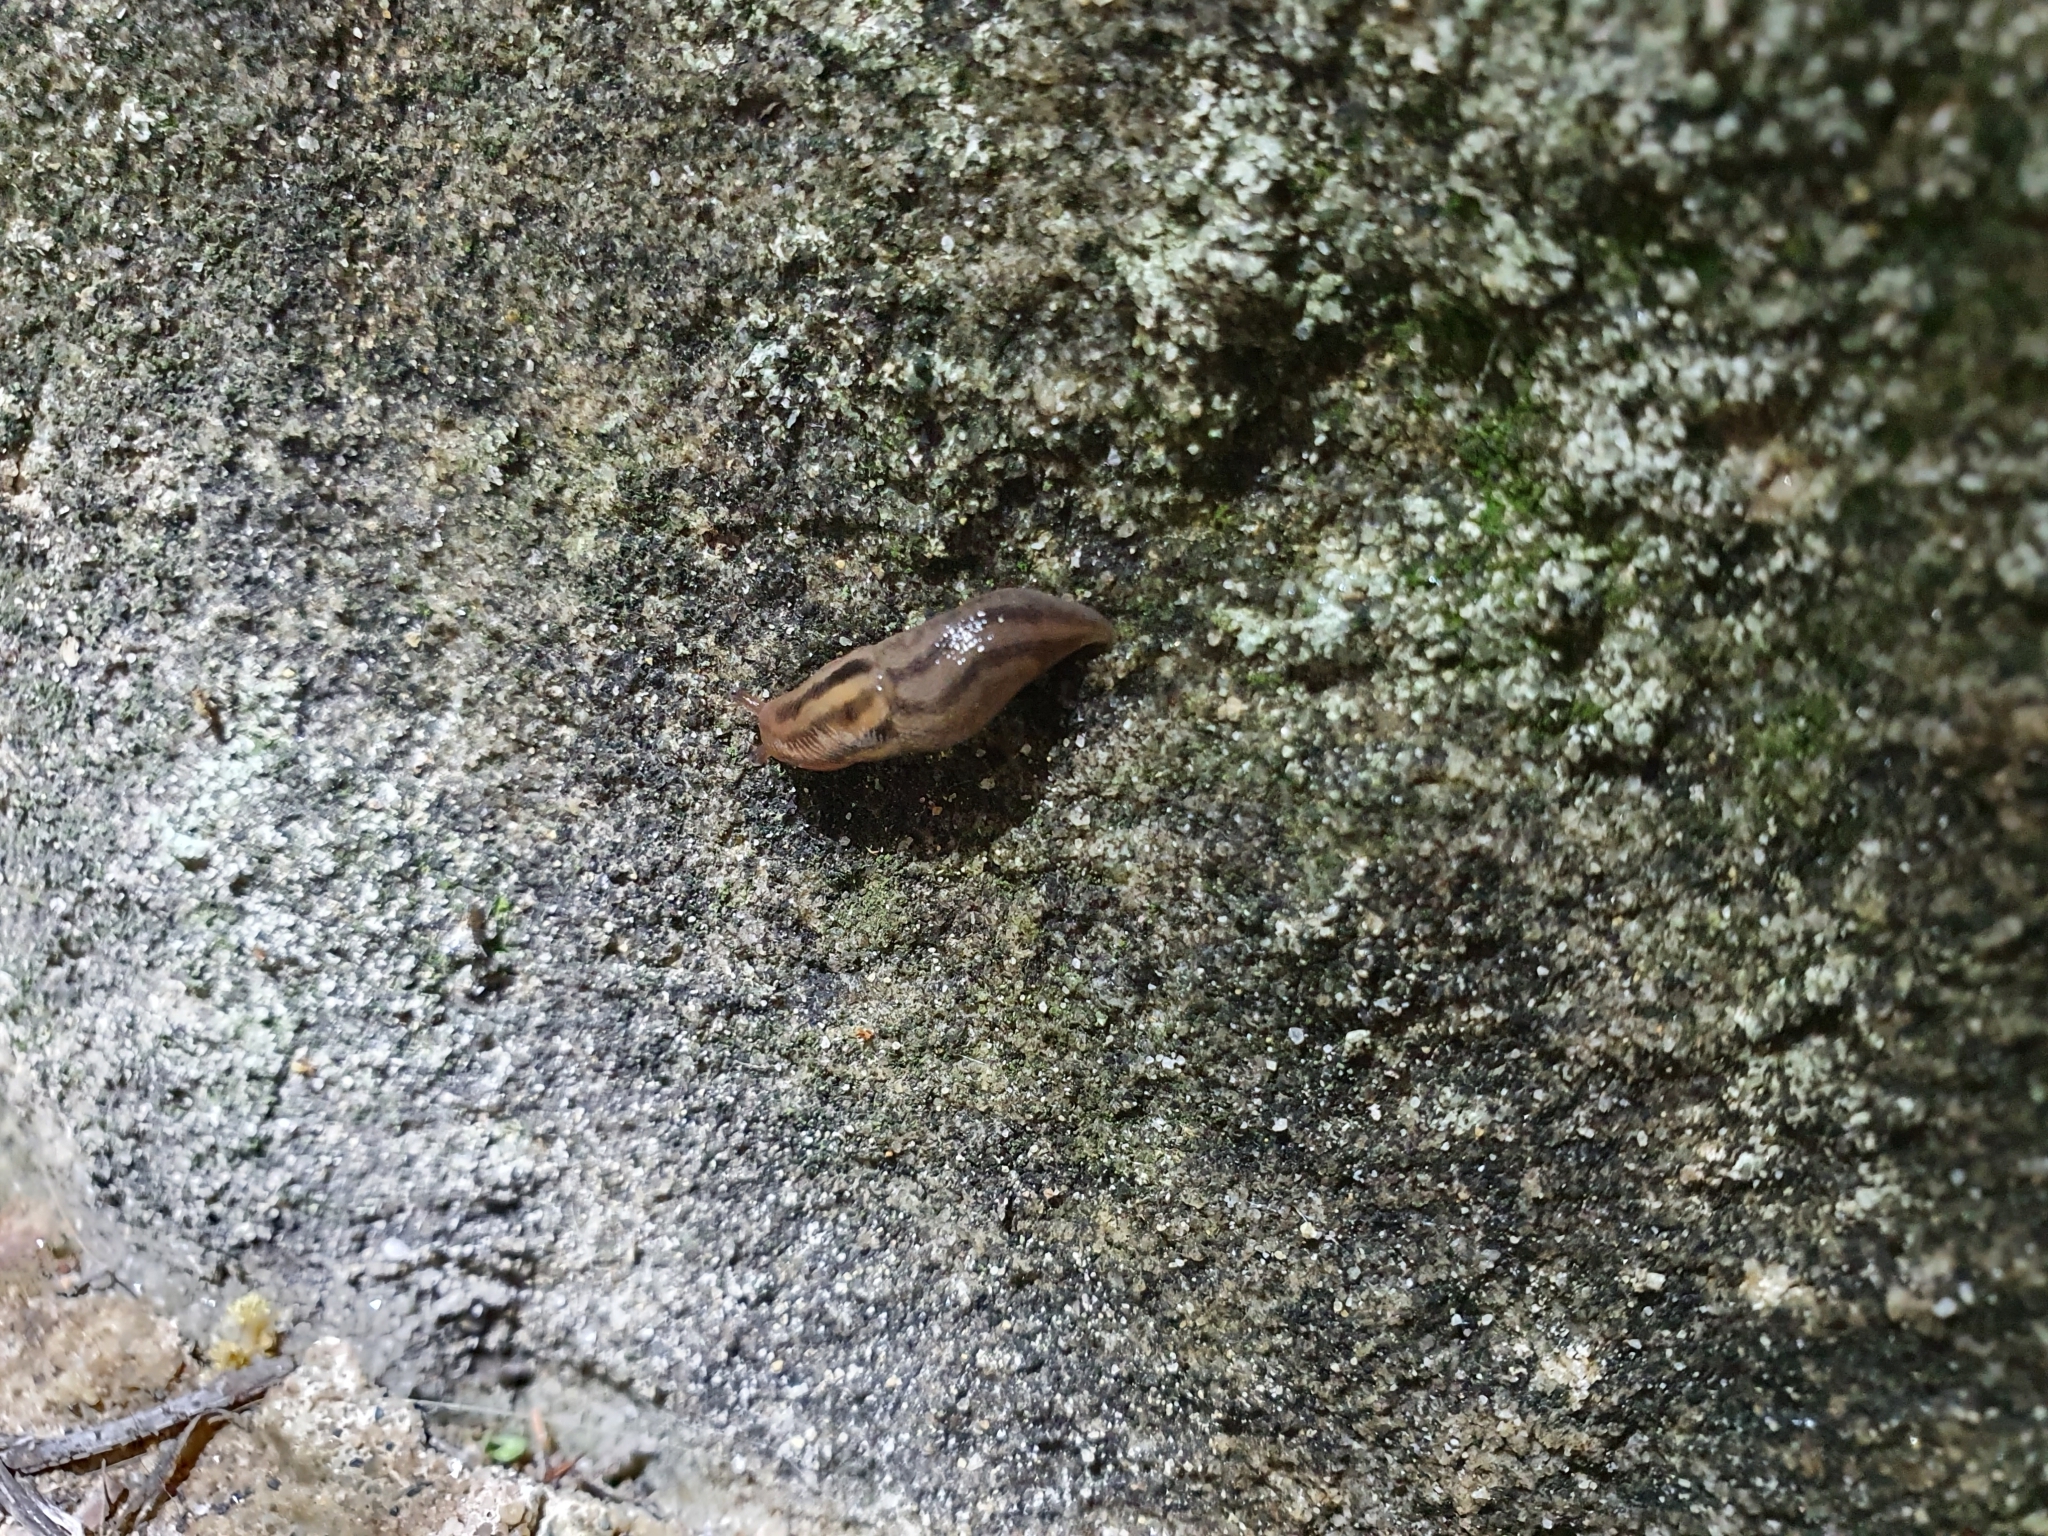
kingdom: Animalia
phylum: Mollusca
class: Gastropoda
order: Stylommatophora
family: Limacidae
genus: Ambigolimax
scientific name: Ambigolimax
